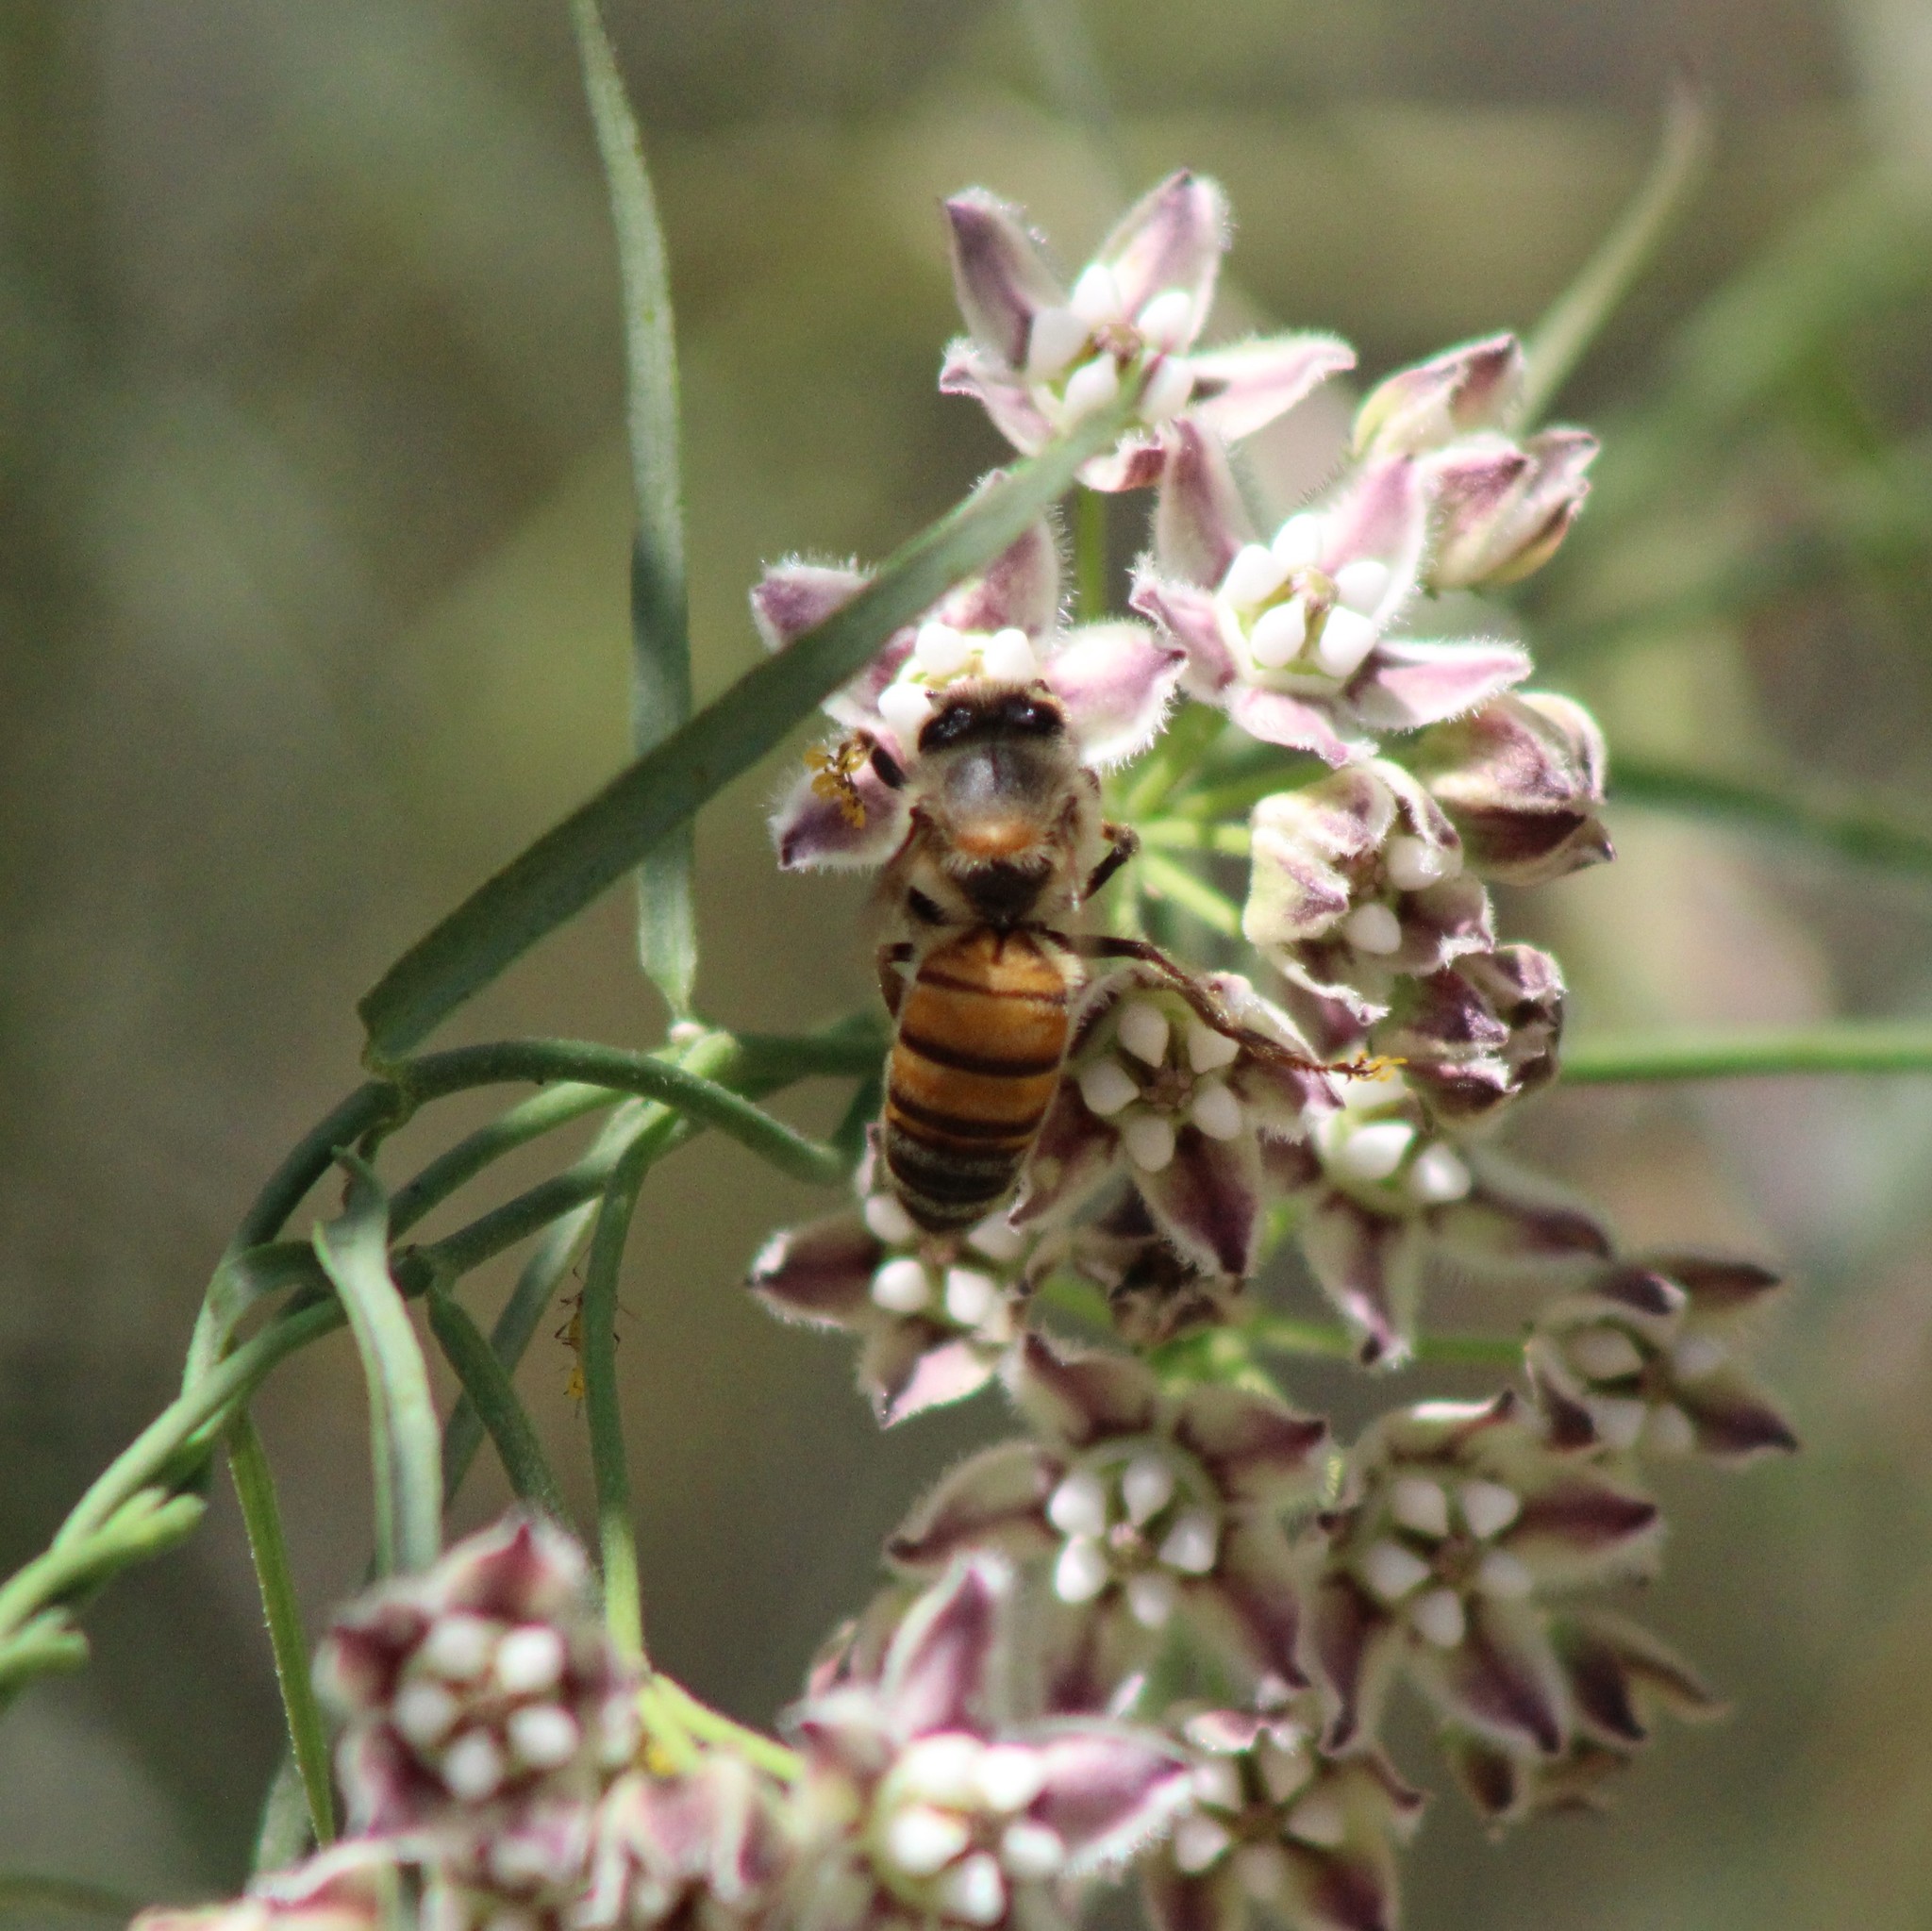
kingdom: Animalia
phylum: Arthropoda
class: Insecta
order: Hymenoptera
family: Apidae
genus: Apis
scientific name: Apis mellifera
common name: Honey bee
